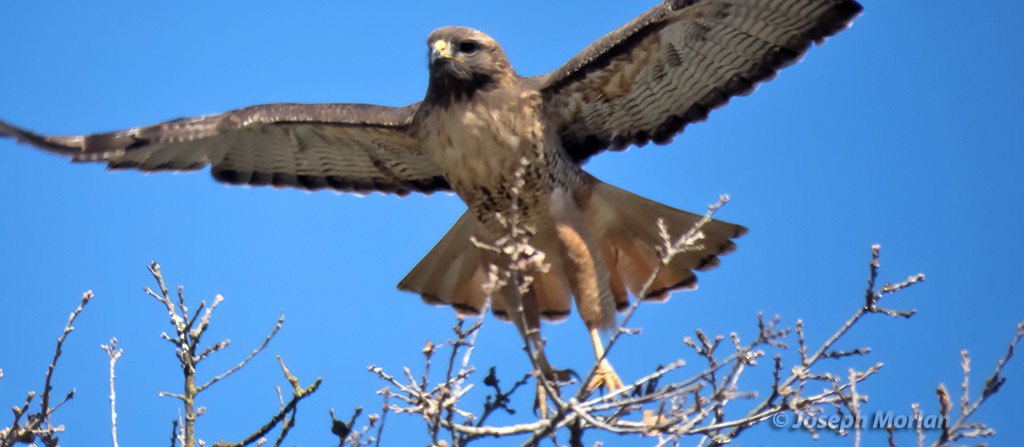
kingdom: Animalia
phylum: Chordata
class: Aves
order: Accipitriformes
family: Accipitridae
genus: Buteo
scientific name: Buteo jamaicensis
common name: Red-tailed hawk
